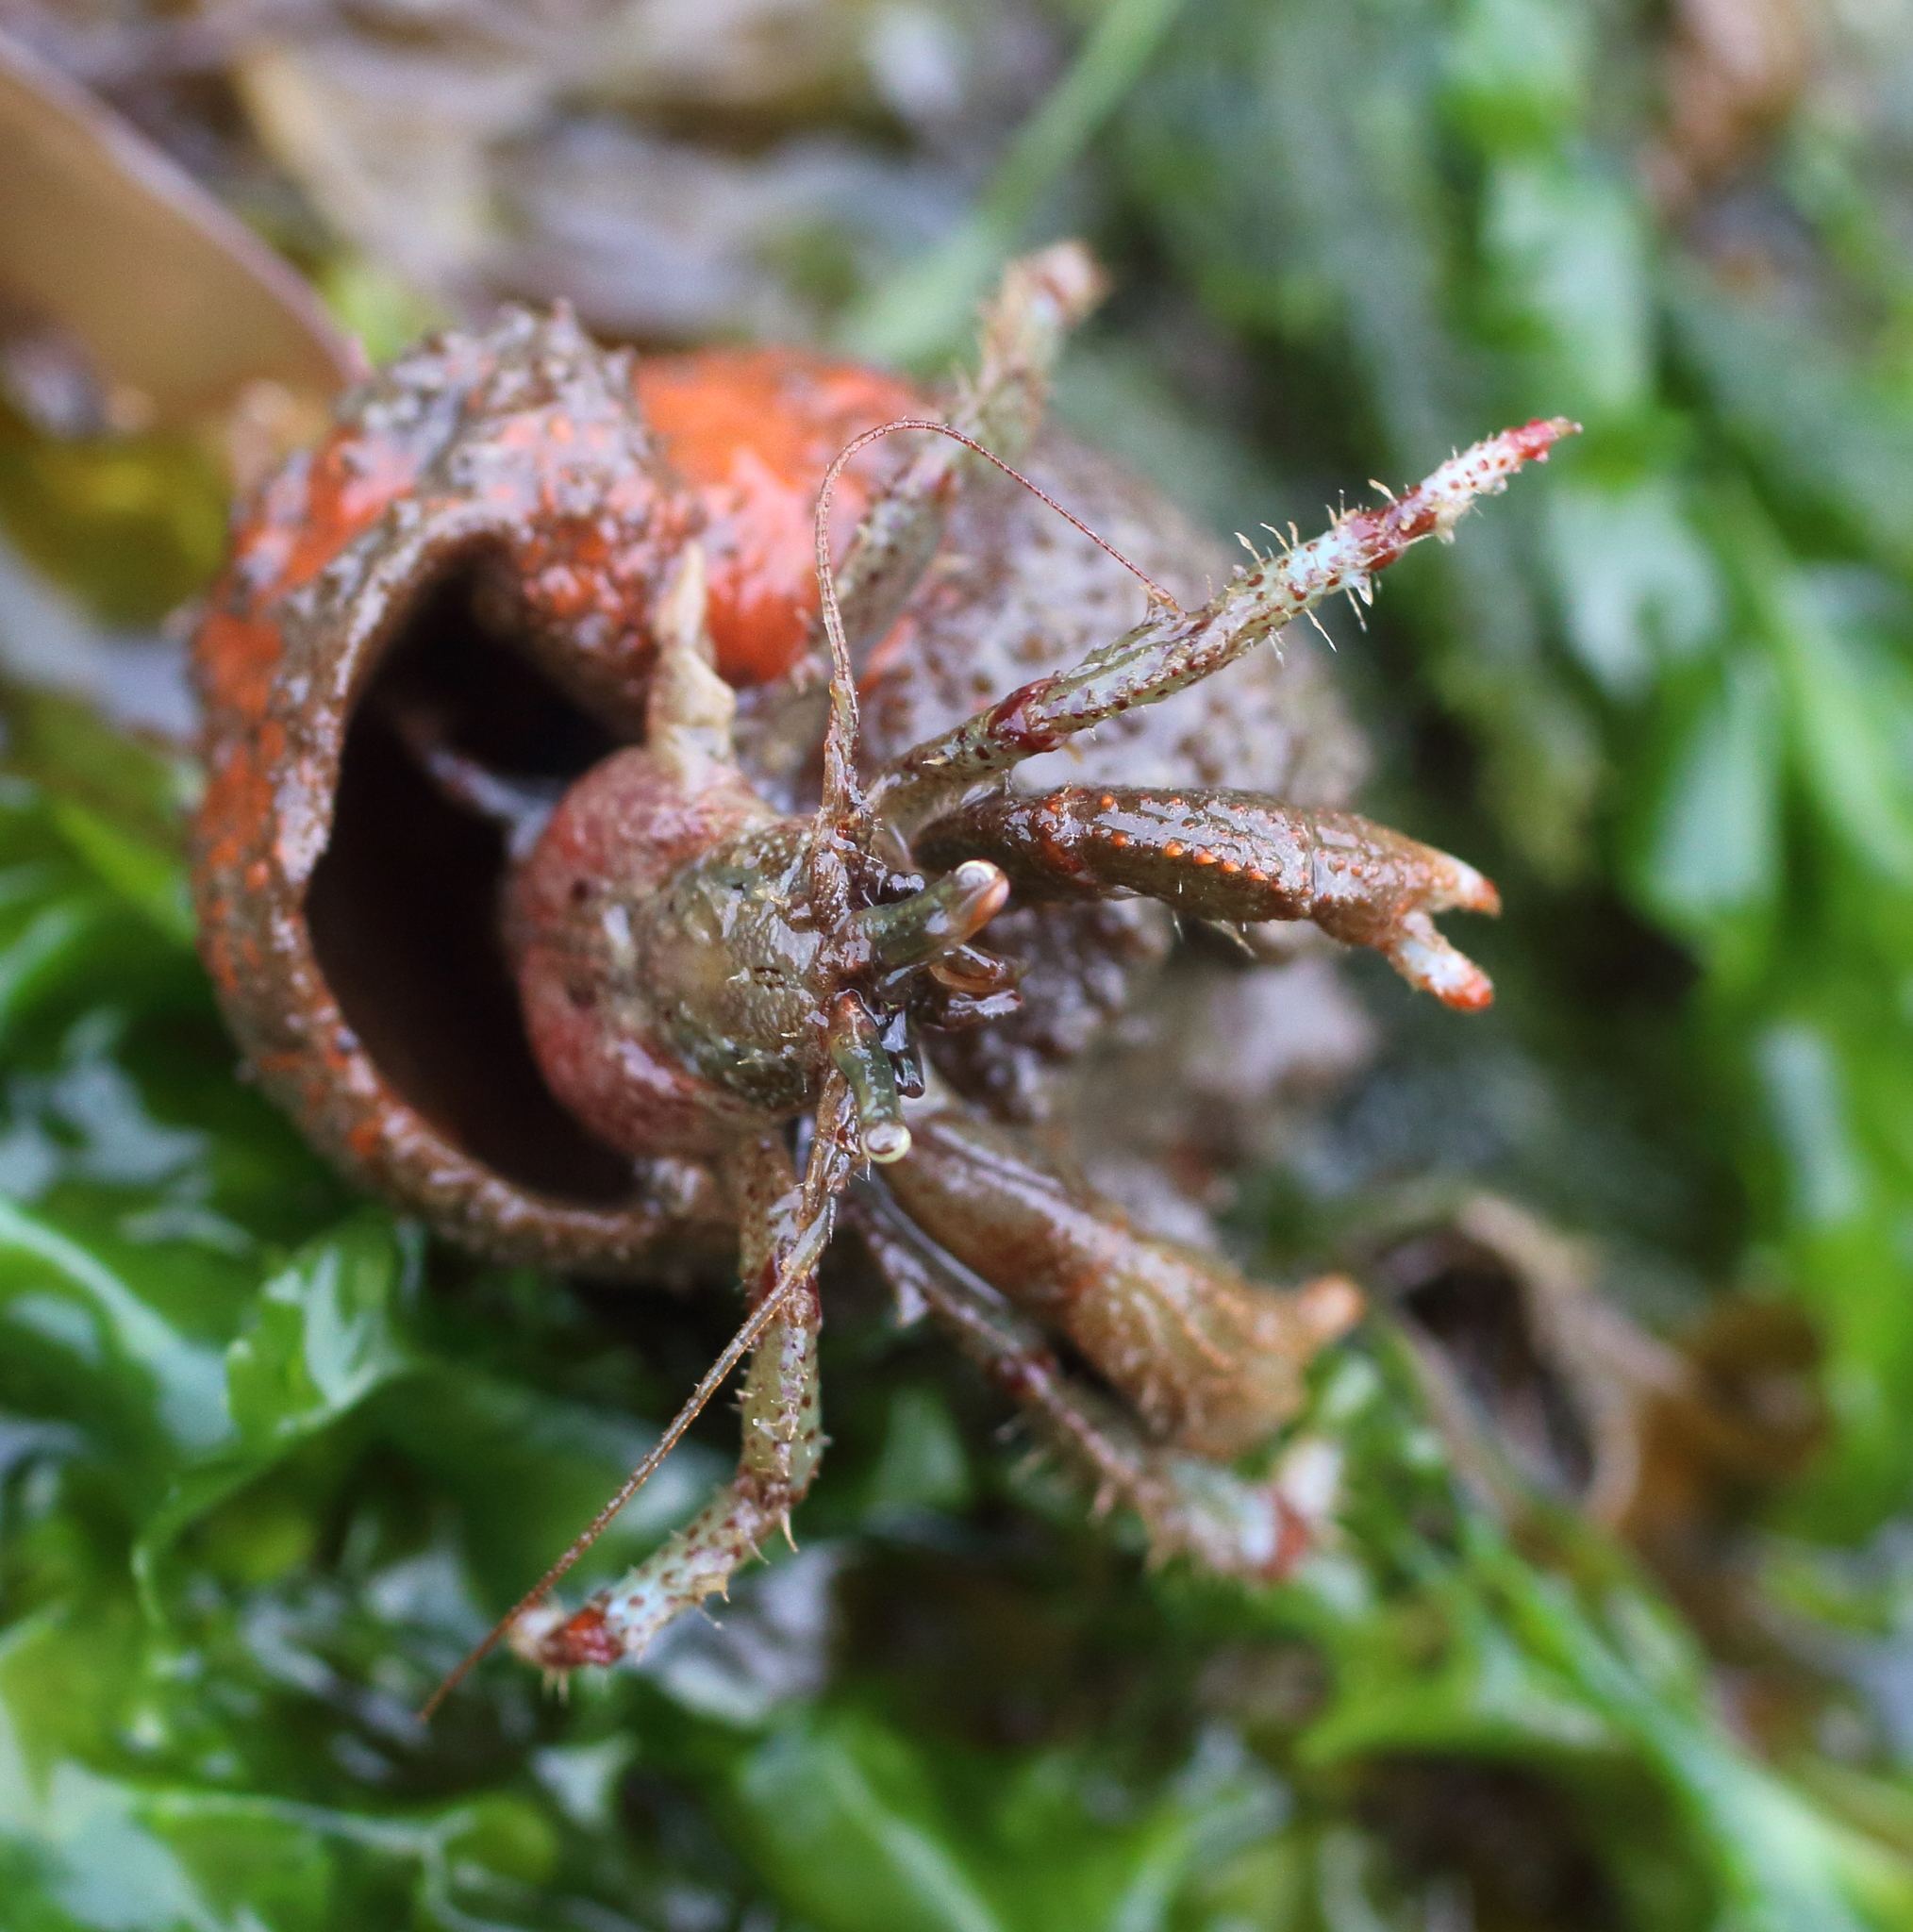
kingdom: Animalia
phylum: Arthropoda
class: Malacostraca
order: Decapoda
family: Paguridae
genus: Pagurus
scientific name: Pagurus beringanus
